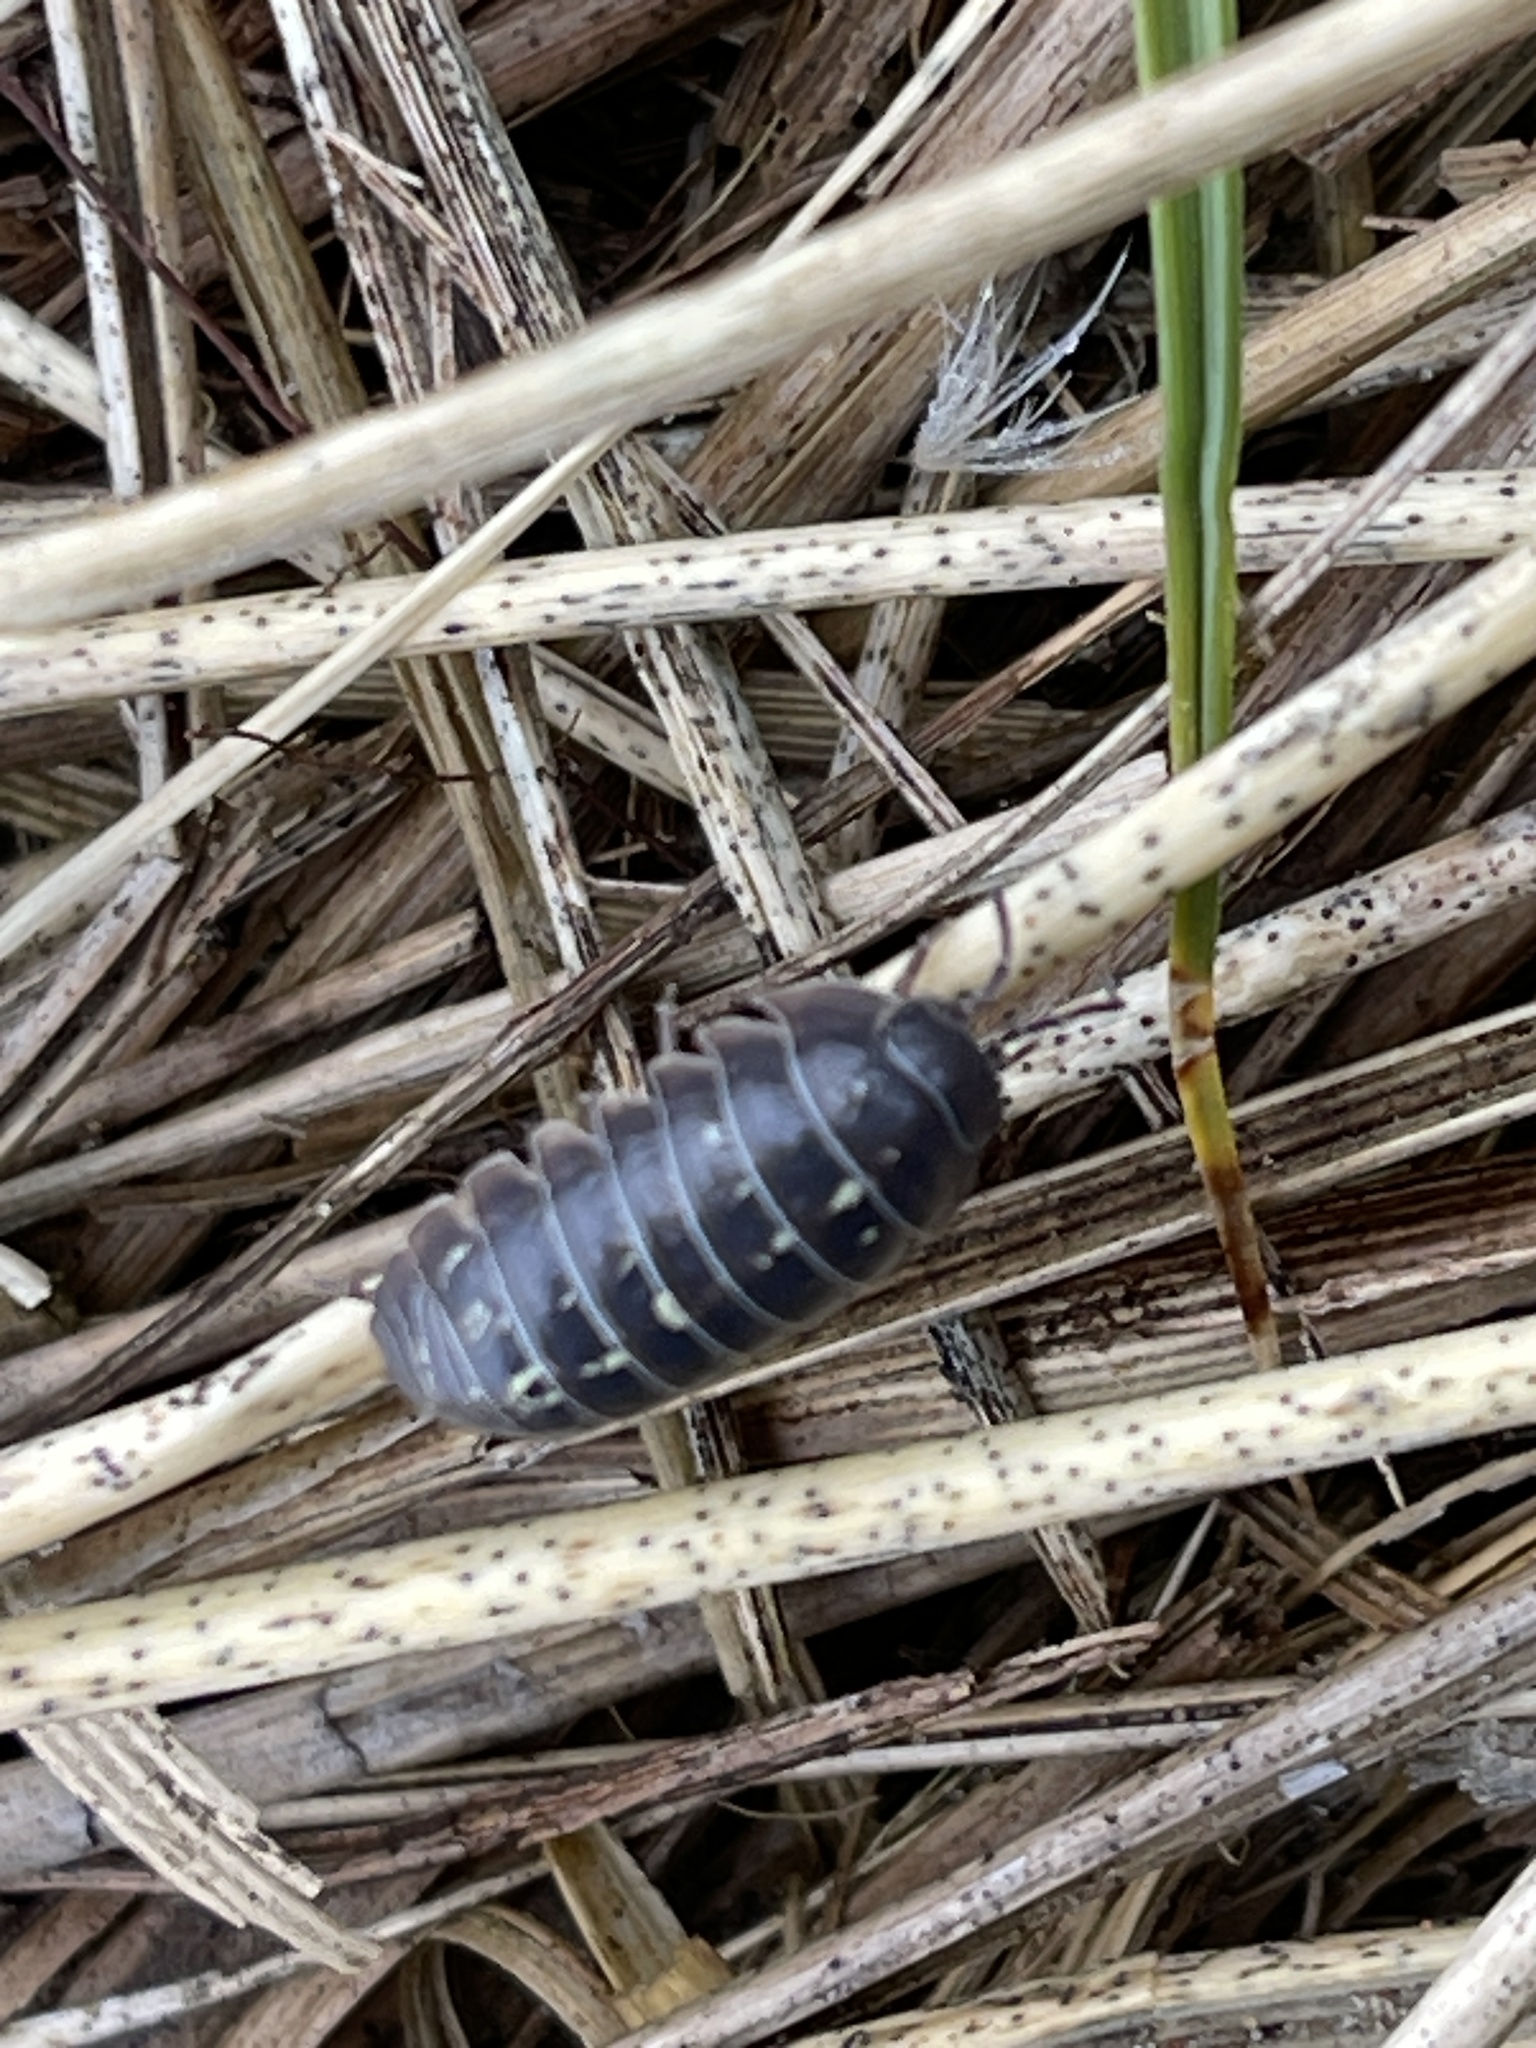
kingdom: Animalia
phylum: Arthropoda
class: Malacostraca
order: Isopoda
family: Armadillidiidae
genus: Armadillidium
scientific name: Armadillidium vulgare
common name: Common pill woodlouse
